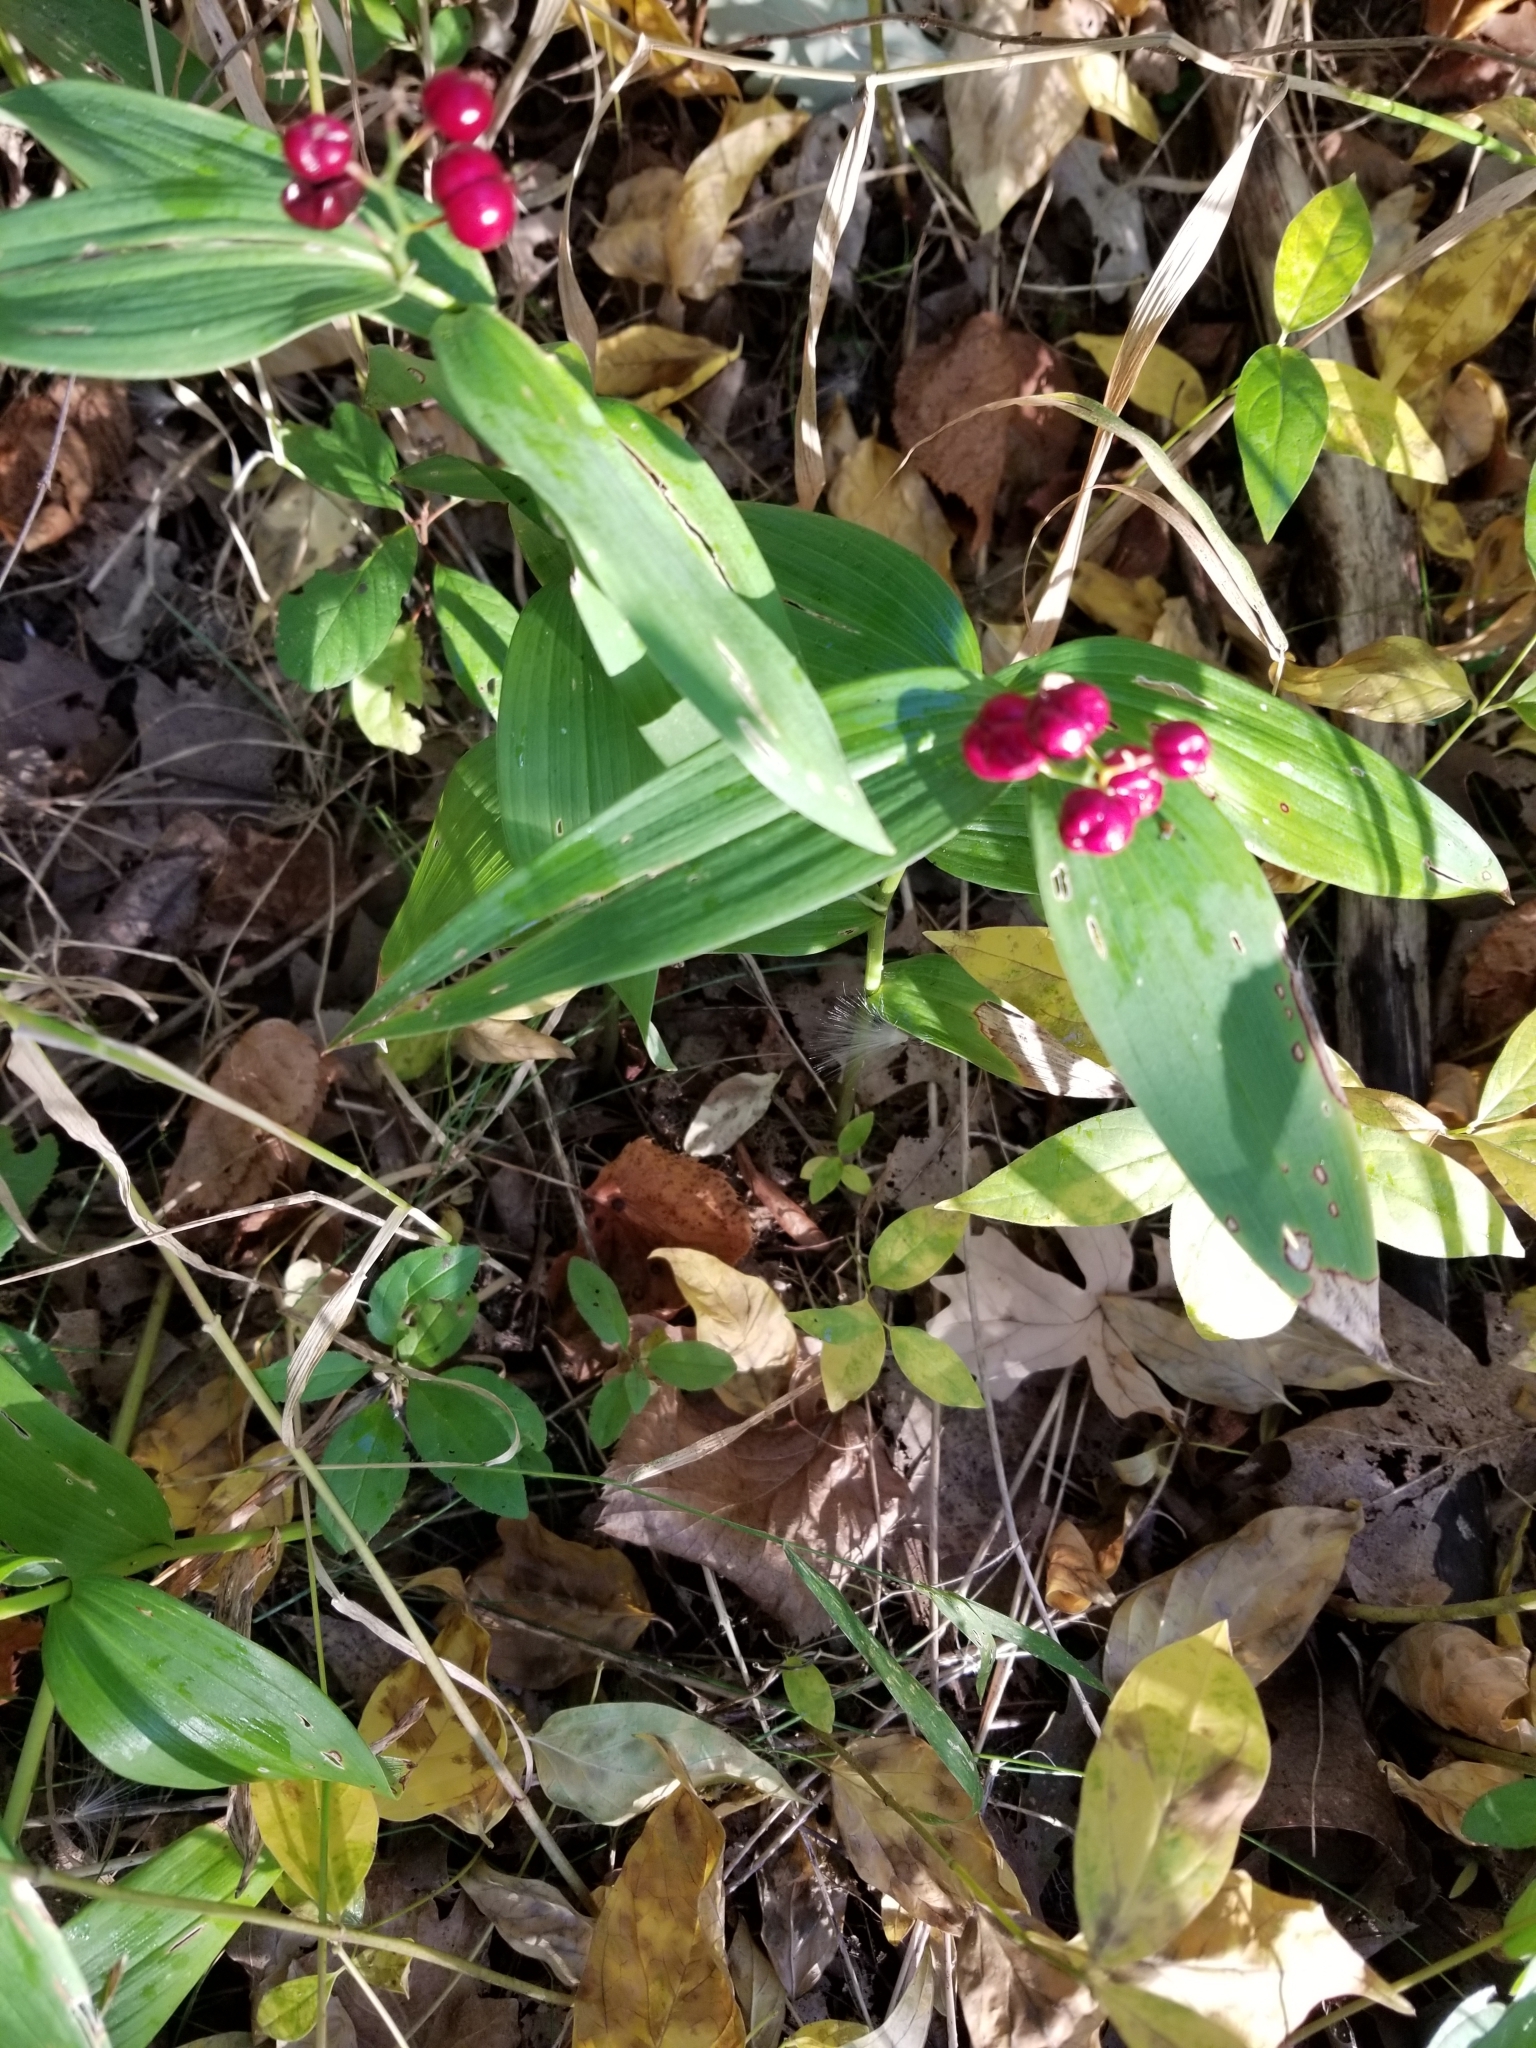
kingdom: Plantae
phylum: Tracheophyta
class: Liliopsida
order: Asparagales
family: Asparagaceae
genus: Maianthemum
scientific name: Maianthemum stellatum
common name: Little false solomon's seal
